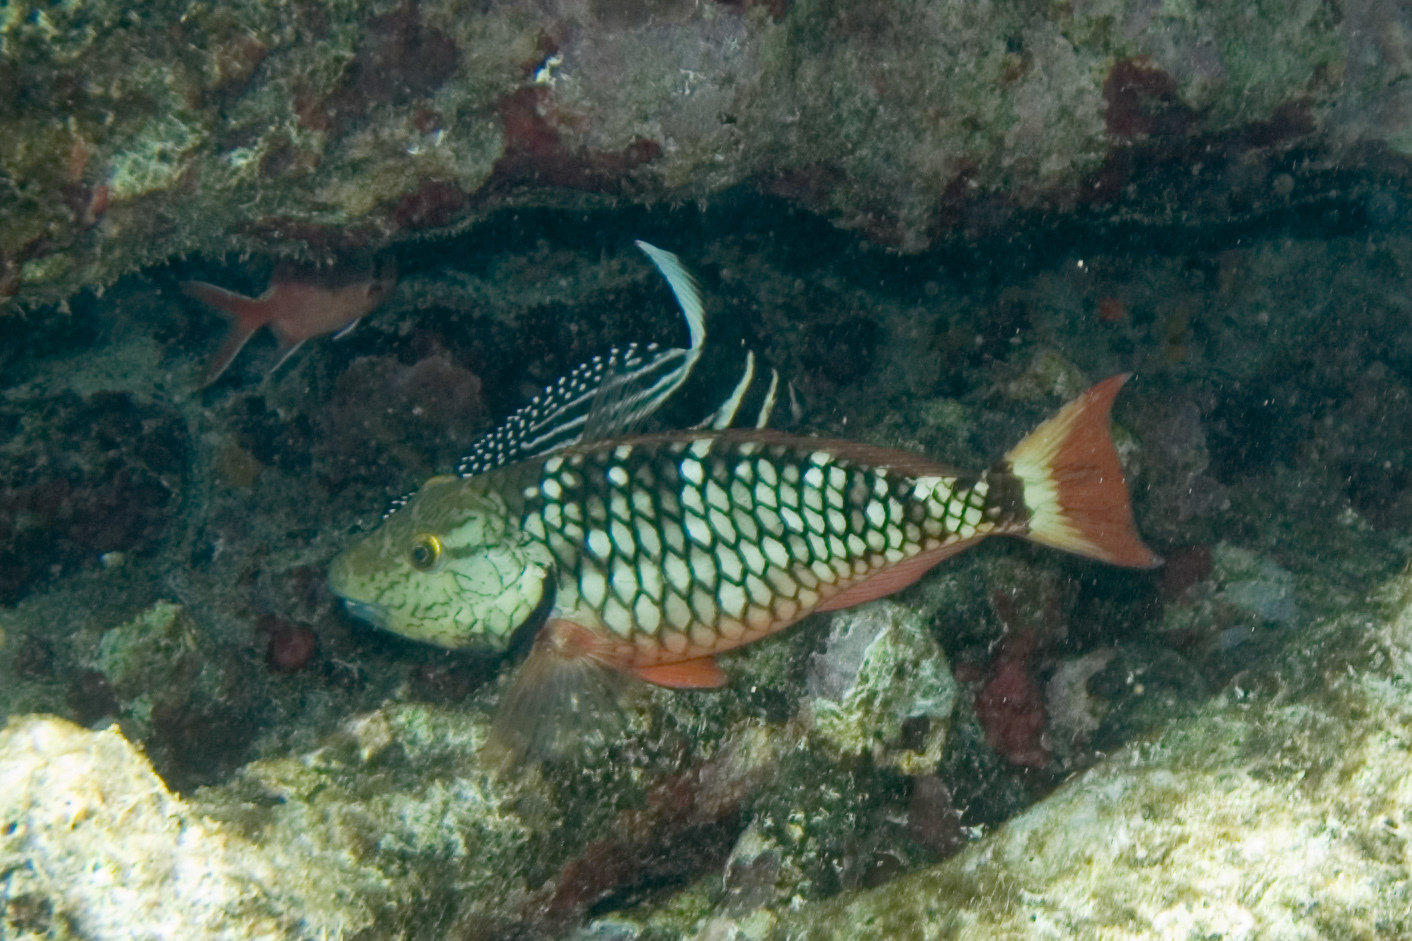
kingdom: Animalia
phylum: Chordata
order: Perciformes
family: Scaridae
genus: Sparisoma
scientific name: Sparisoma viride
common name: Stoplight parrotfish
